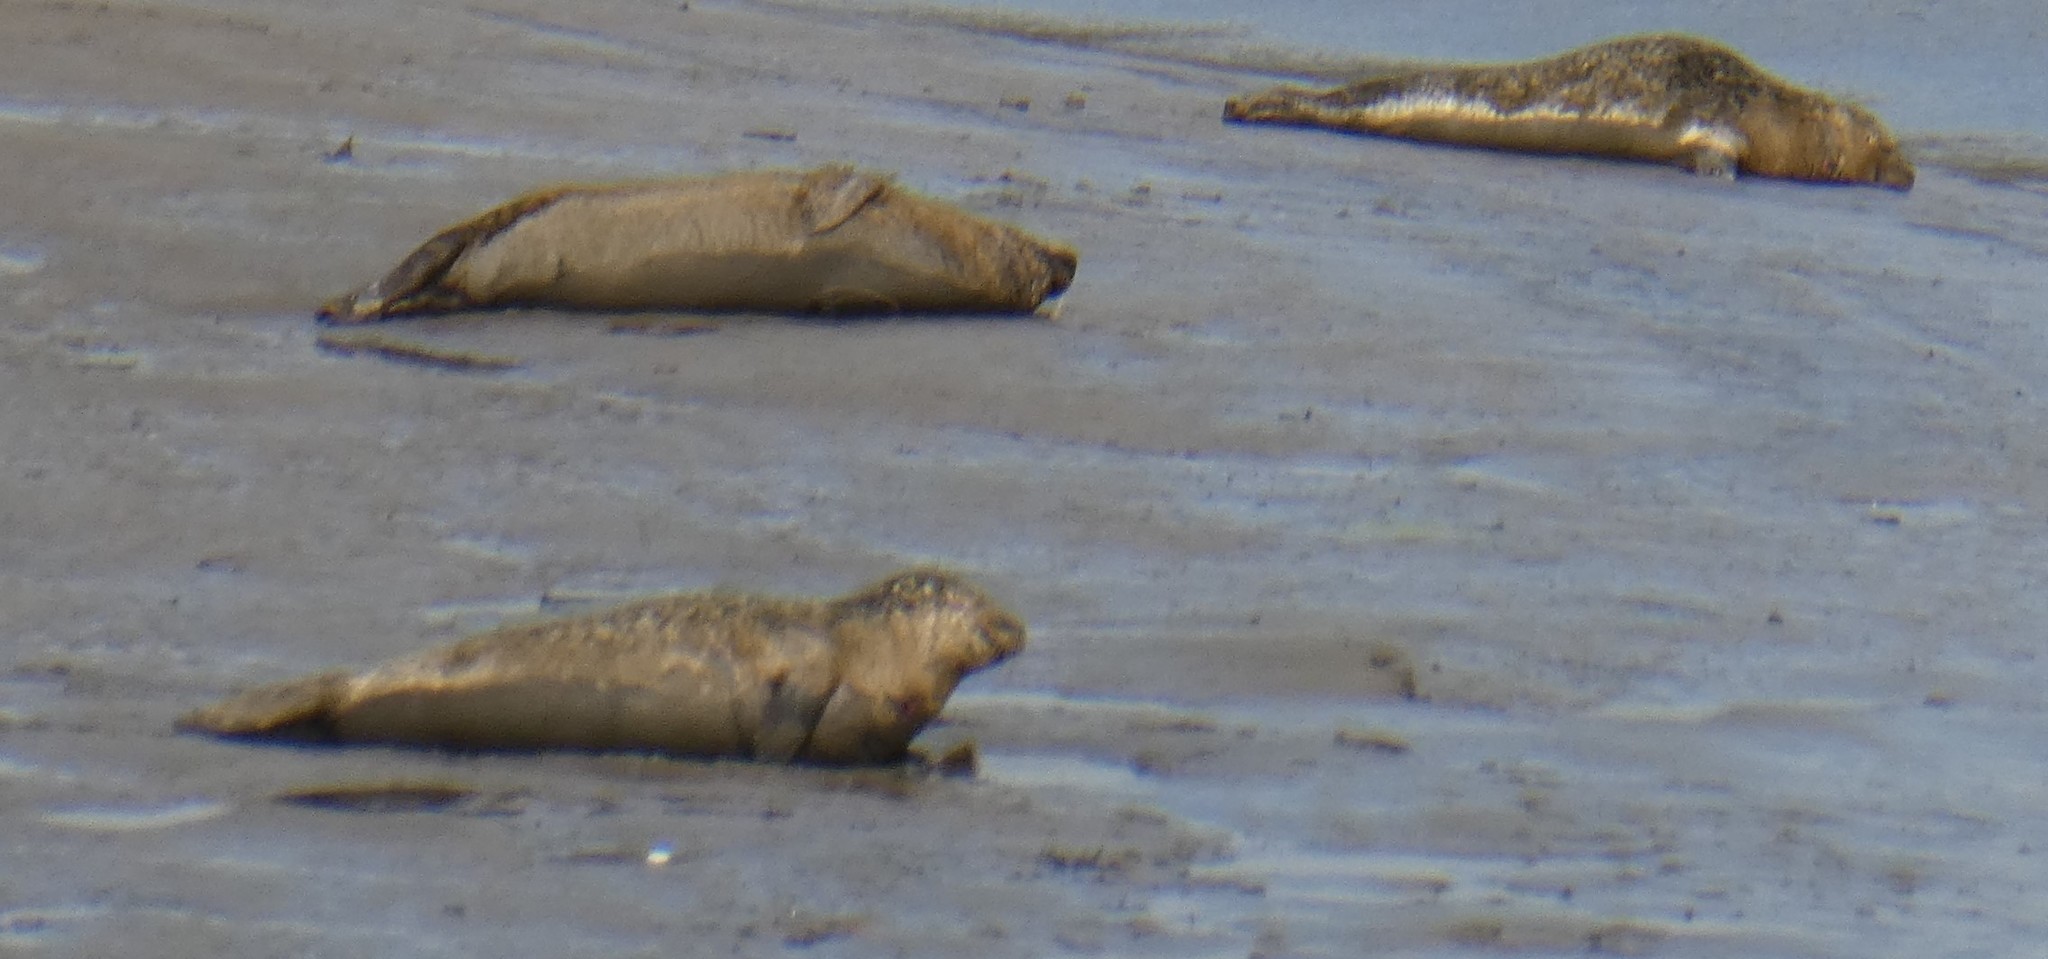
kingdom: Animalia
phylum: Chordata
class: Mammalia
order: Carnivora
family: Phocidae
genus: Phoca
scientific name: Phoca vitulina
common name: Harbor seal
